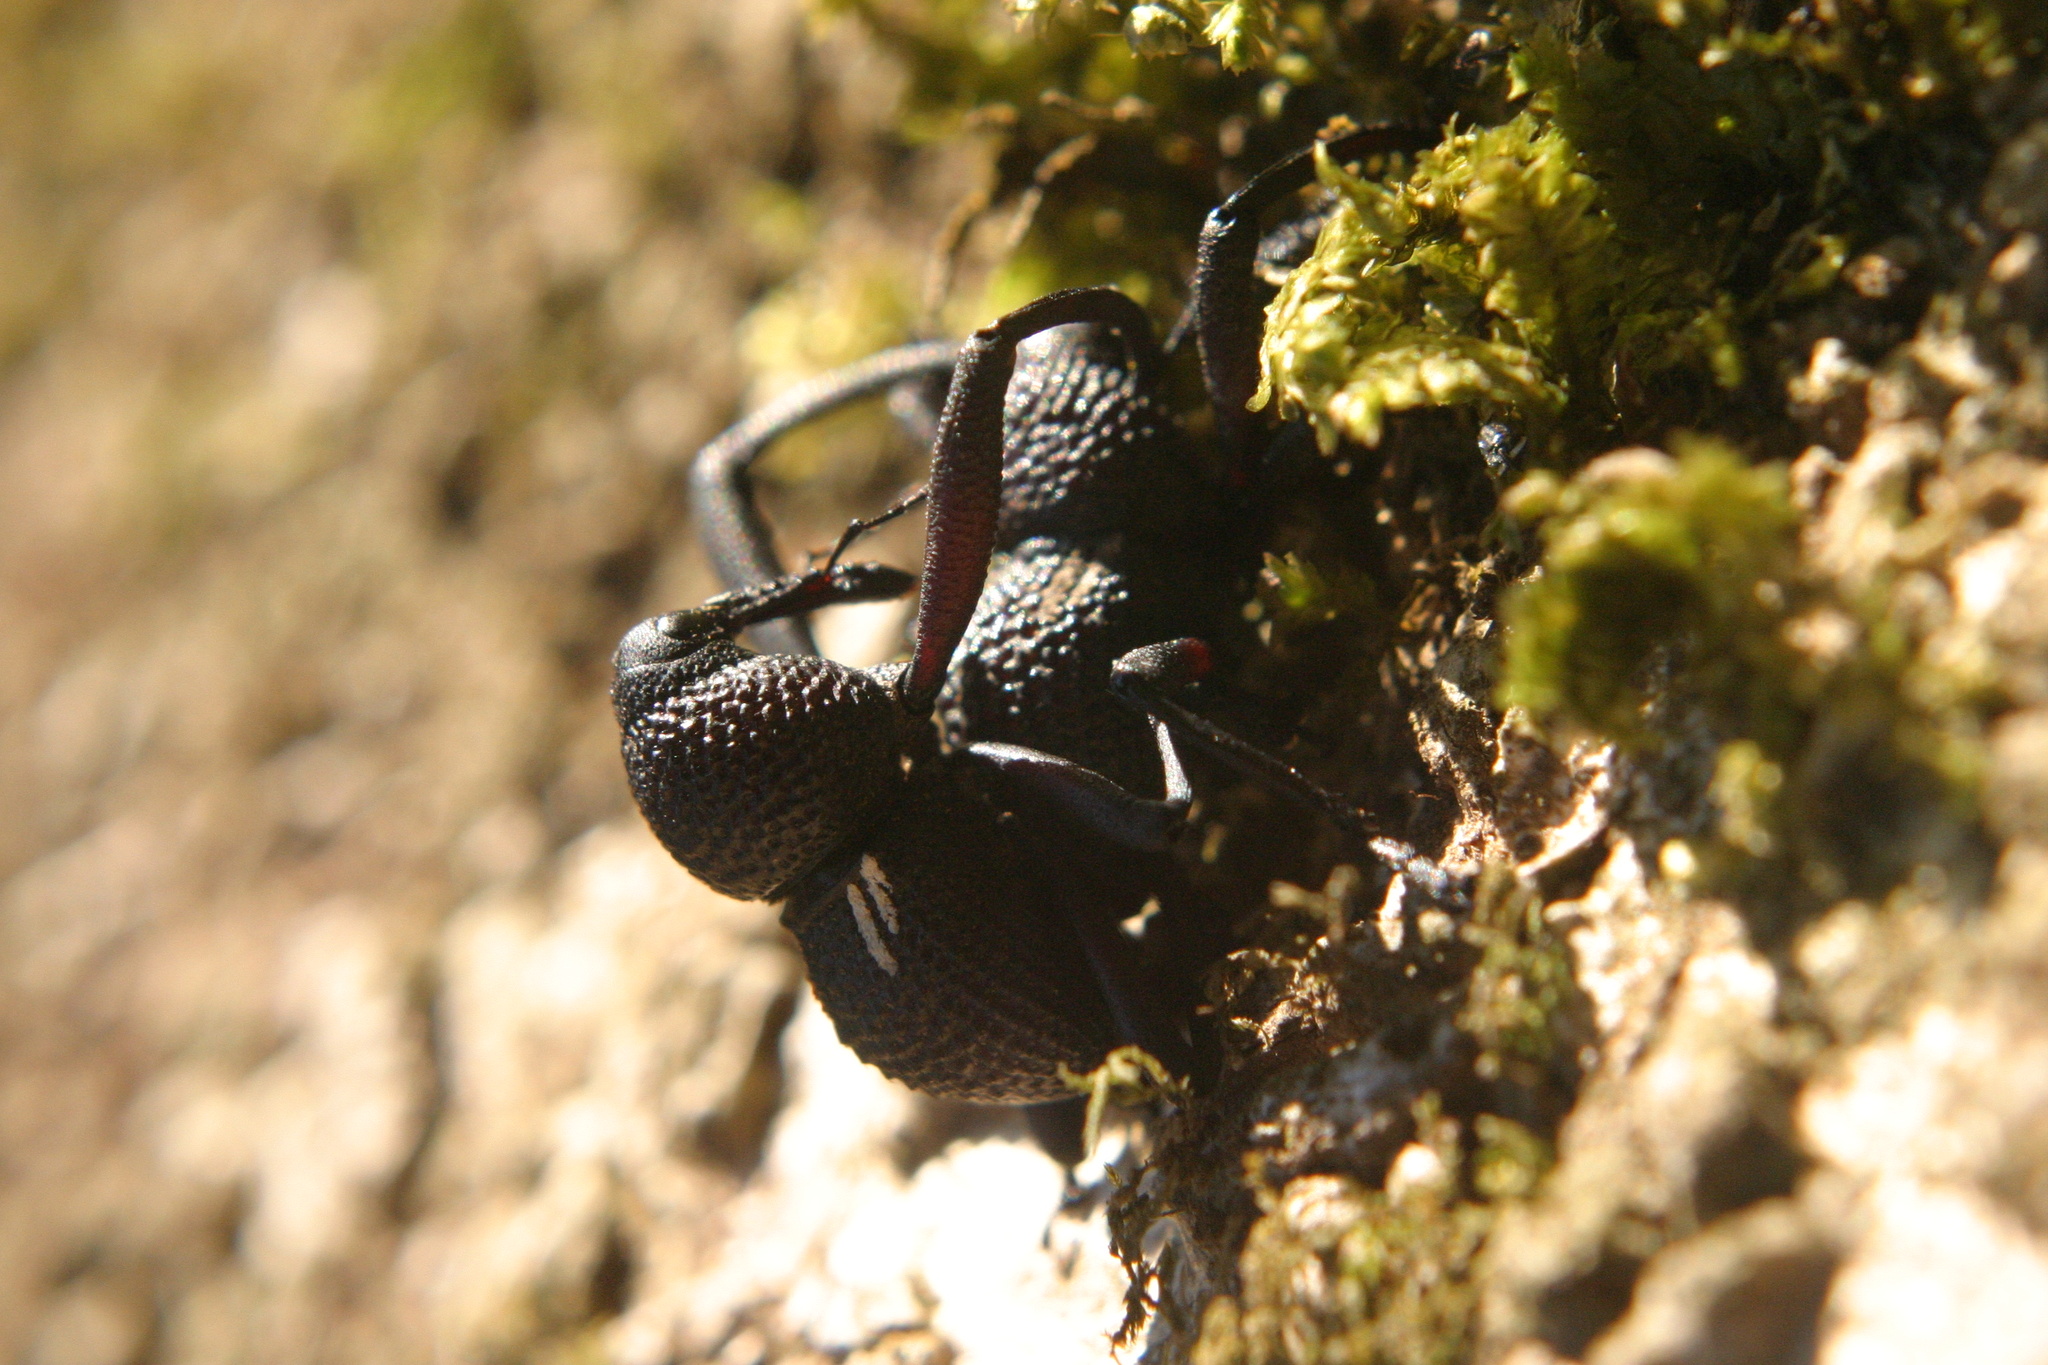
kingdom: Animalia
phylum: Arthropoda
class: Insecta
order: Coleoptera
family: Curculionidae
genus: Rhyephenes
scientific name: Rhyephenes humeralis
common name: Araè±ita chilena del pino
